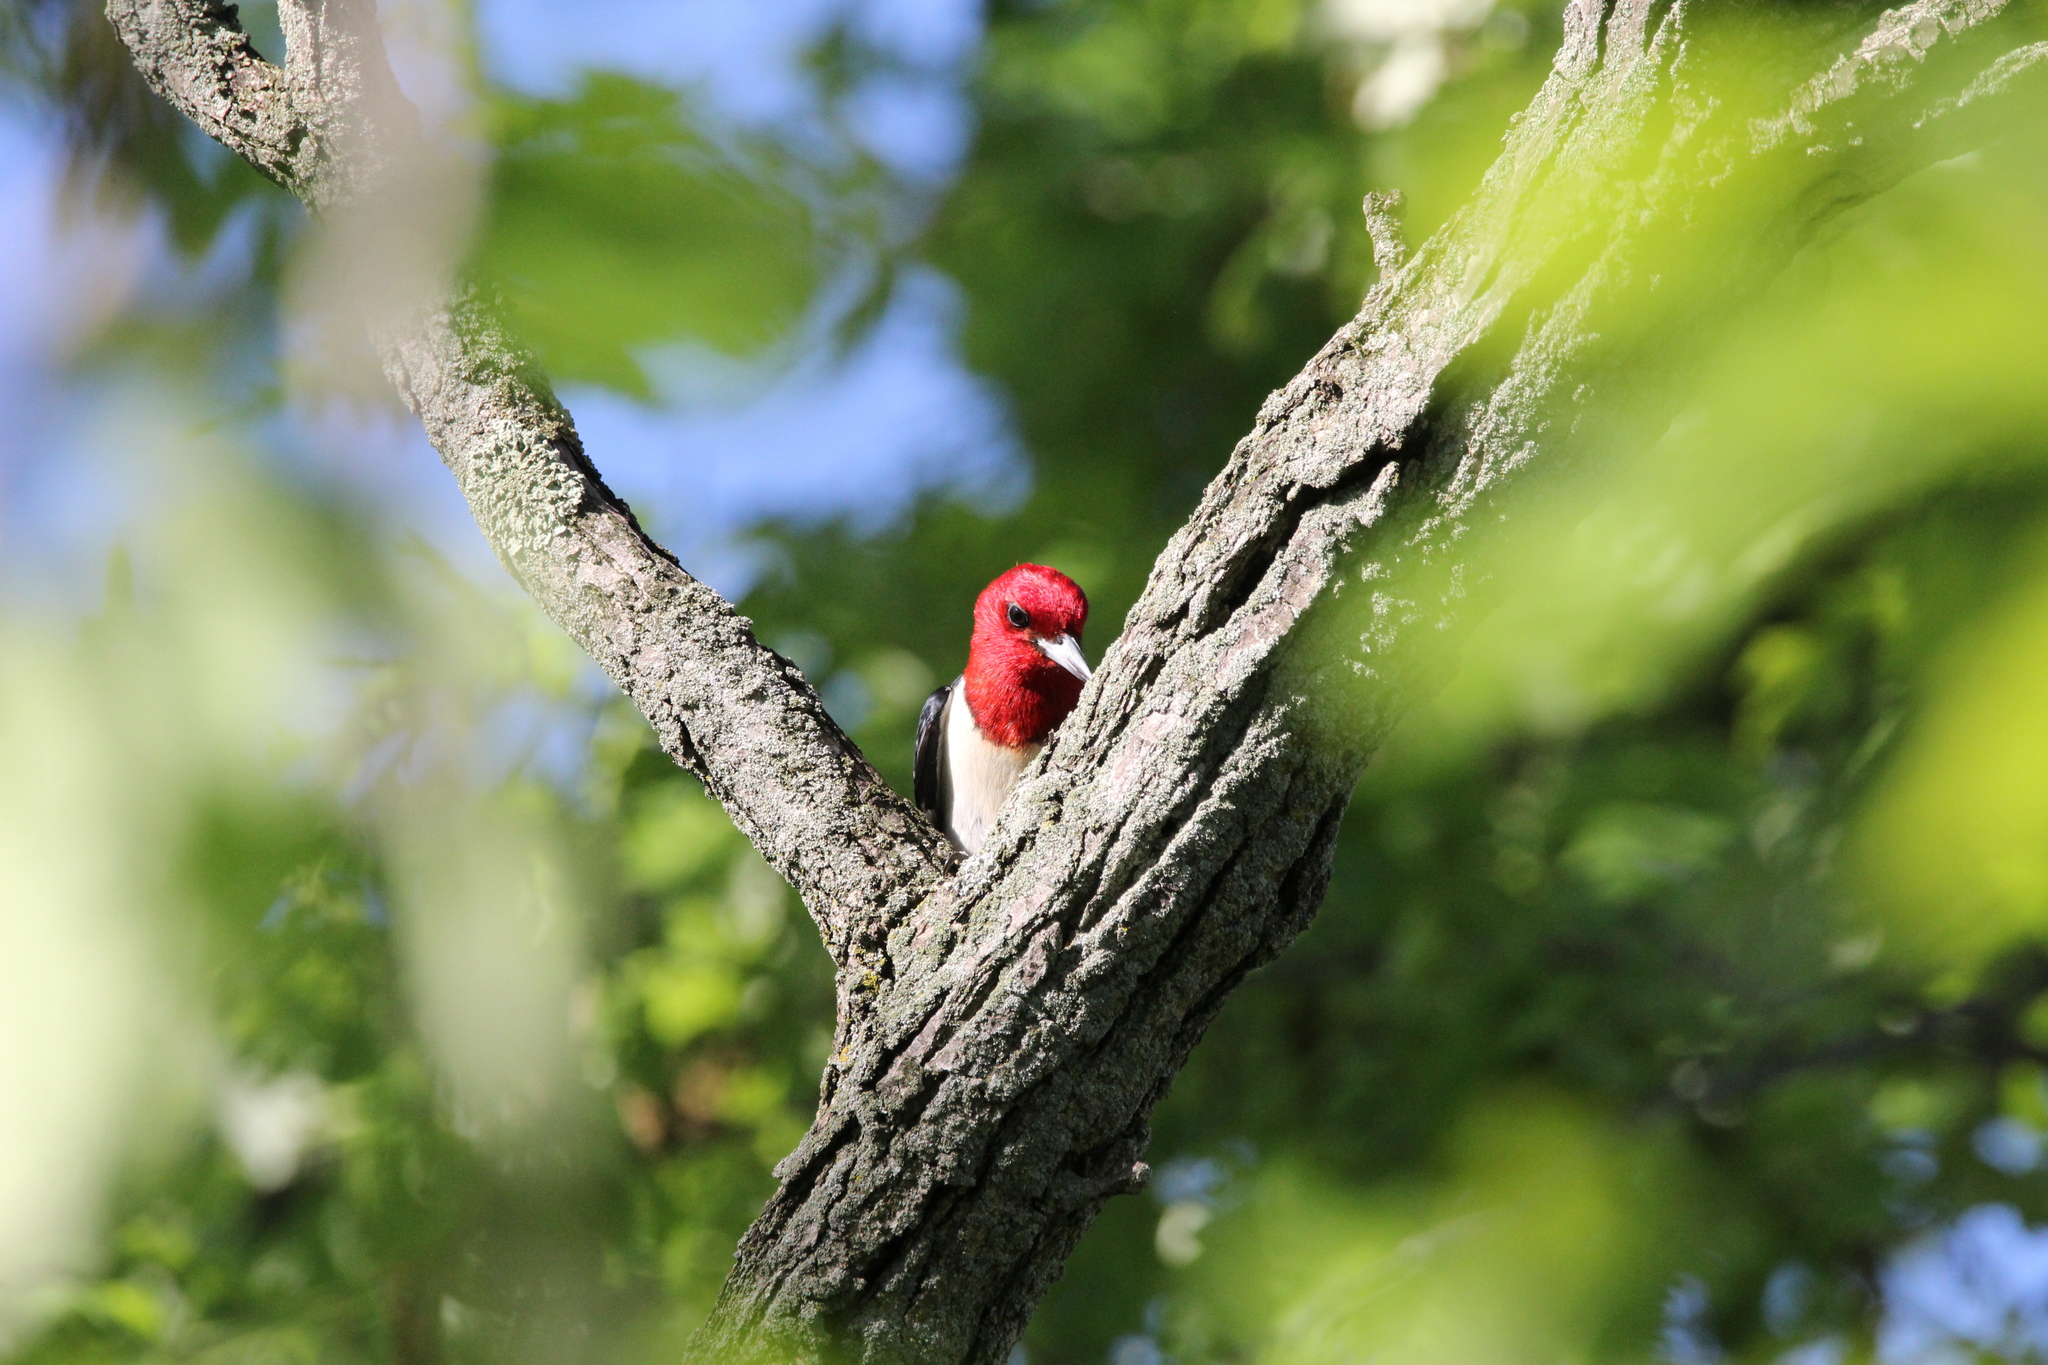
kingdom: Animalia
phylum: Chordata
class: Aves
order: Piciformes
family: Picidae
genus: Melanerpes
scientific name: Melanerpes erythrocephalus
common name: Red-headed woodpecker
